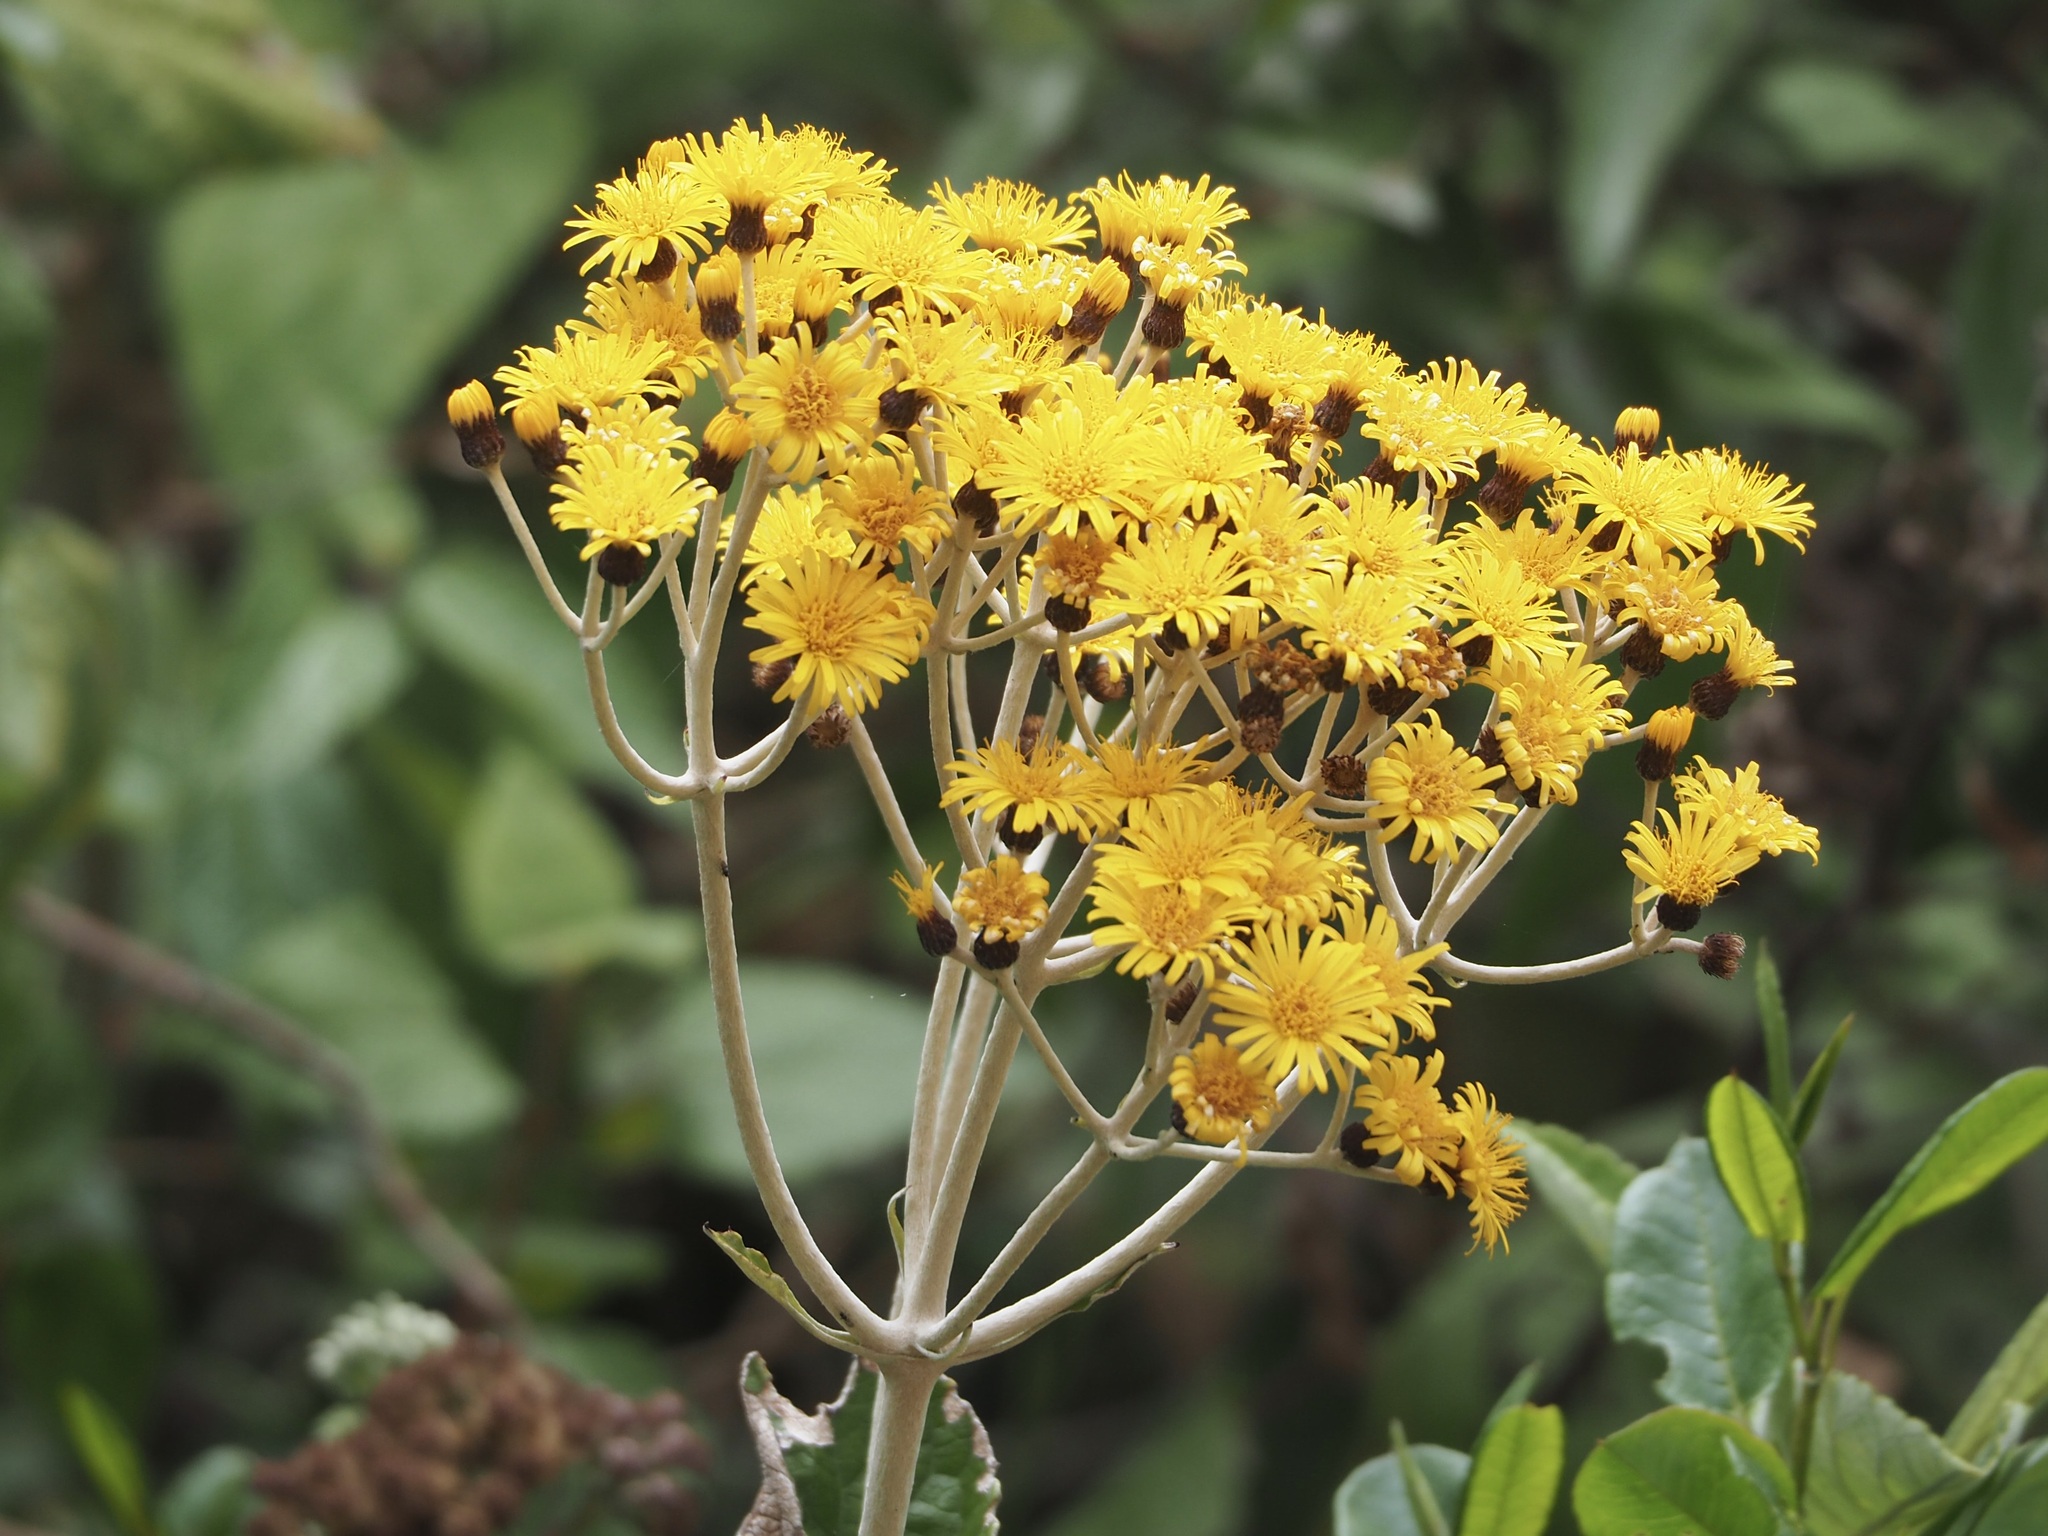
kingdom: Plantae
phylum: Tracheophyta
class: Magnoliopsida
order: Asterales
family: Asteraceae
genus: Liabum
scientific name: Liabum igniarium
